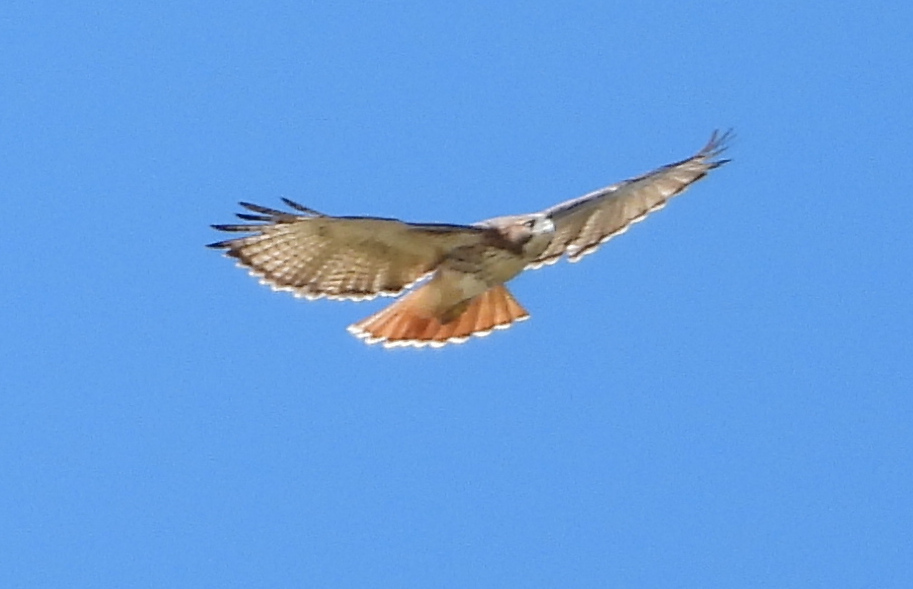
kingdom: Animalia
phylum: Chordata
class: Aves
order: Accipitriformes
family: Accipitridae
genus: Buteo
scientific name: Buteo jamaicensis
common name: Red-tailed hawk
